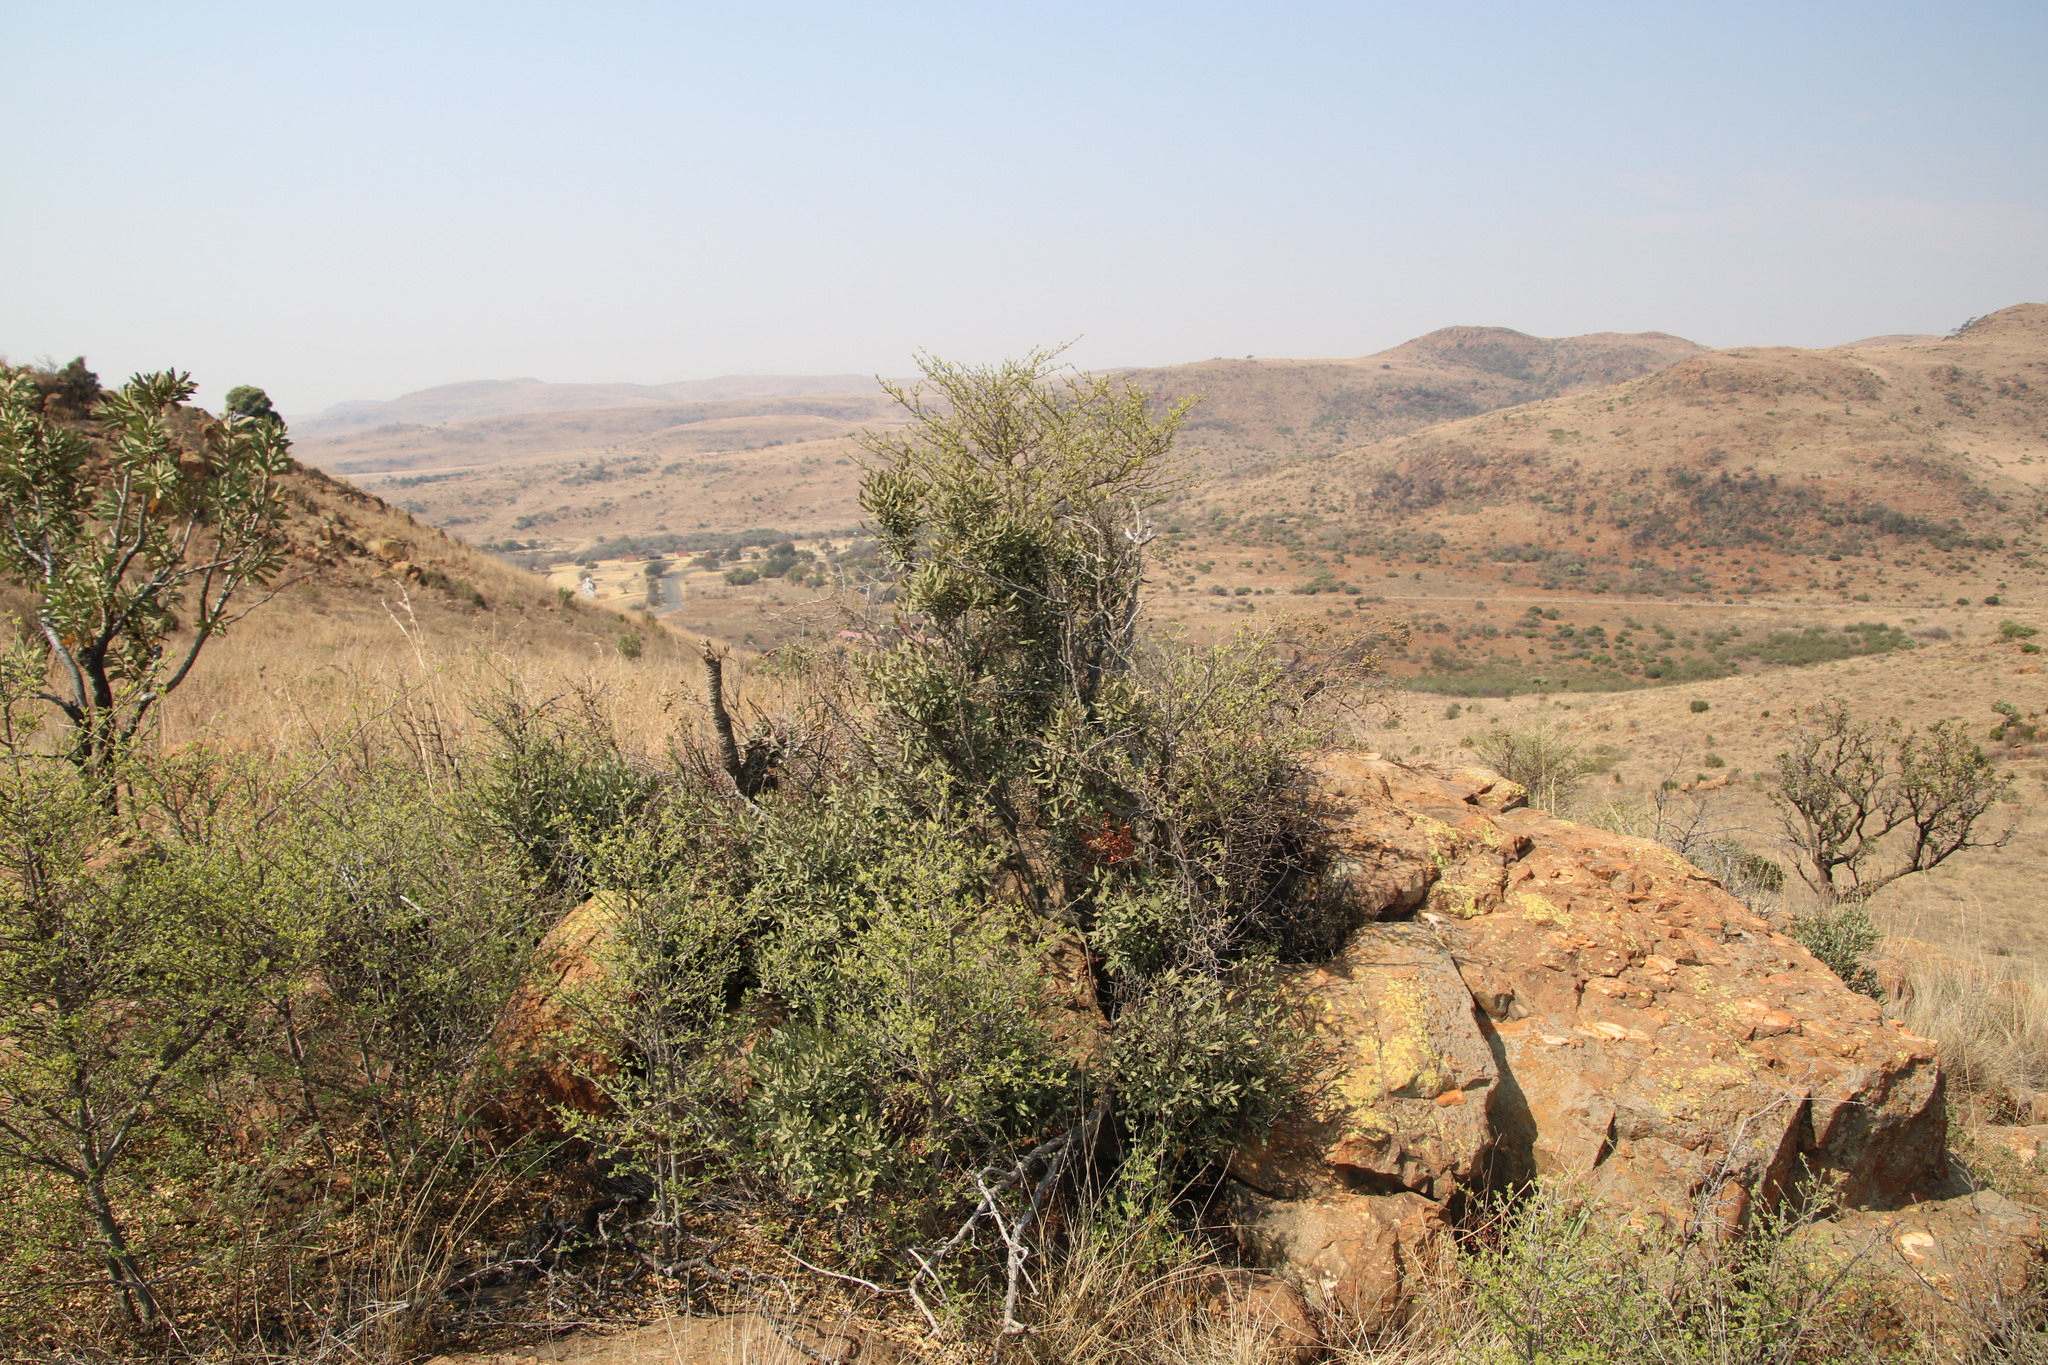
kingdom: Plantae
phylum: Tracheophyta
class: Magnoliopsida
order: Ericales
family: Ebenaceae
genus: Euclea
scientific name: Euclea crispa
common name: Blue guarri
